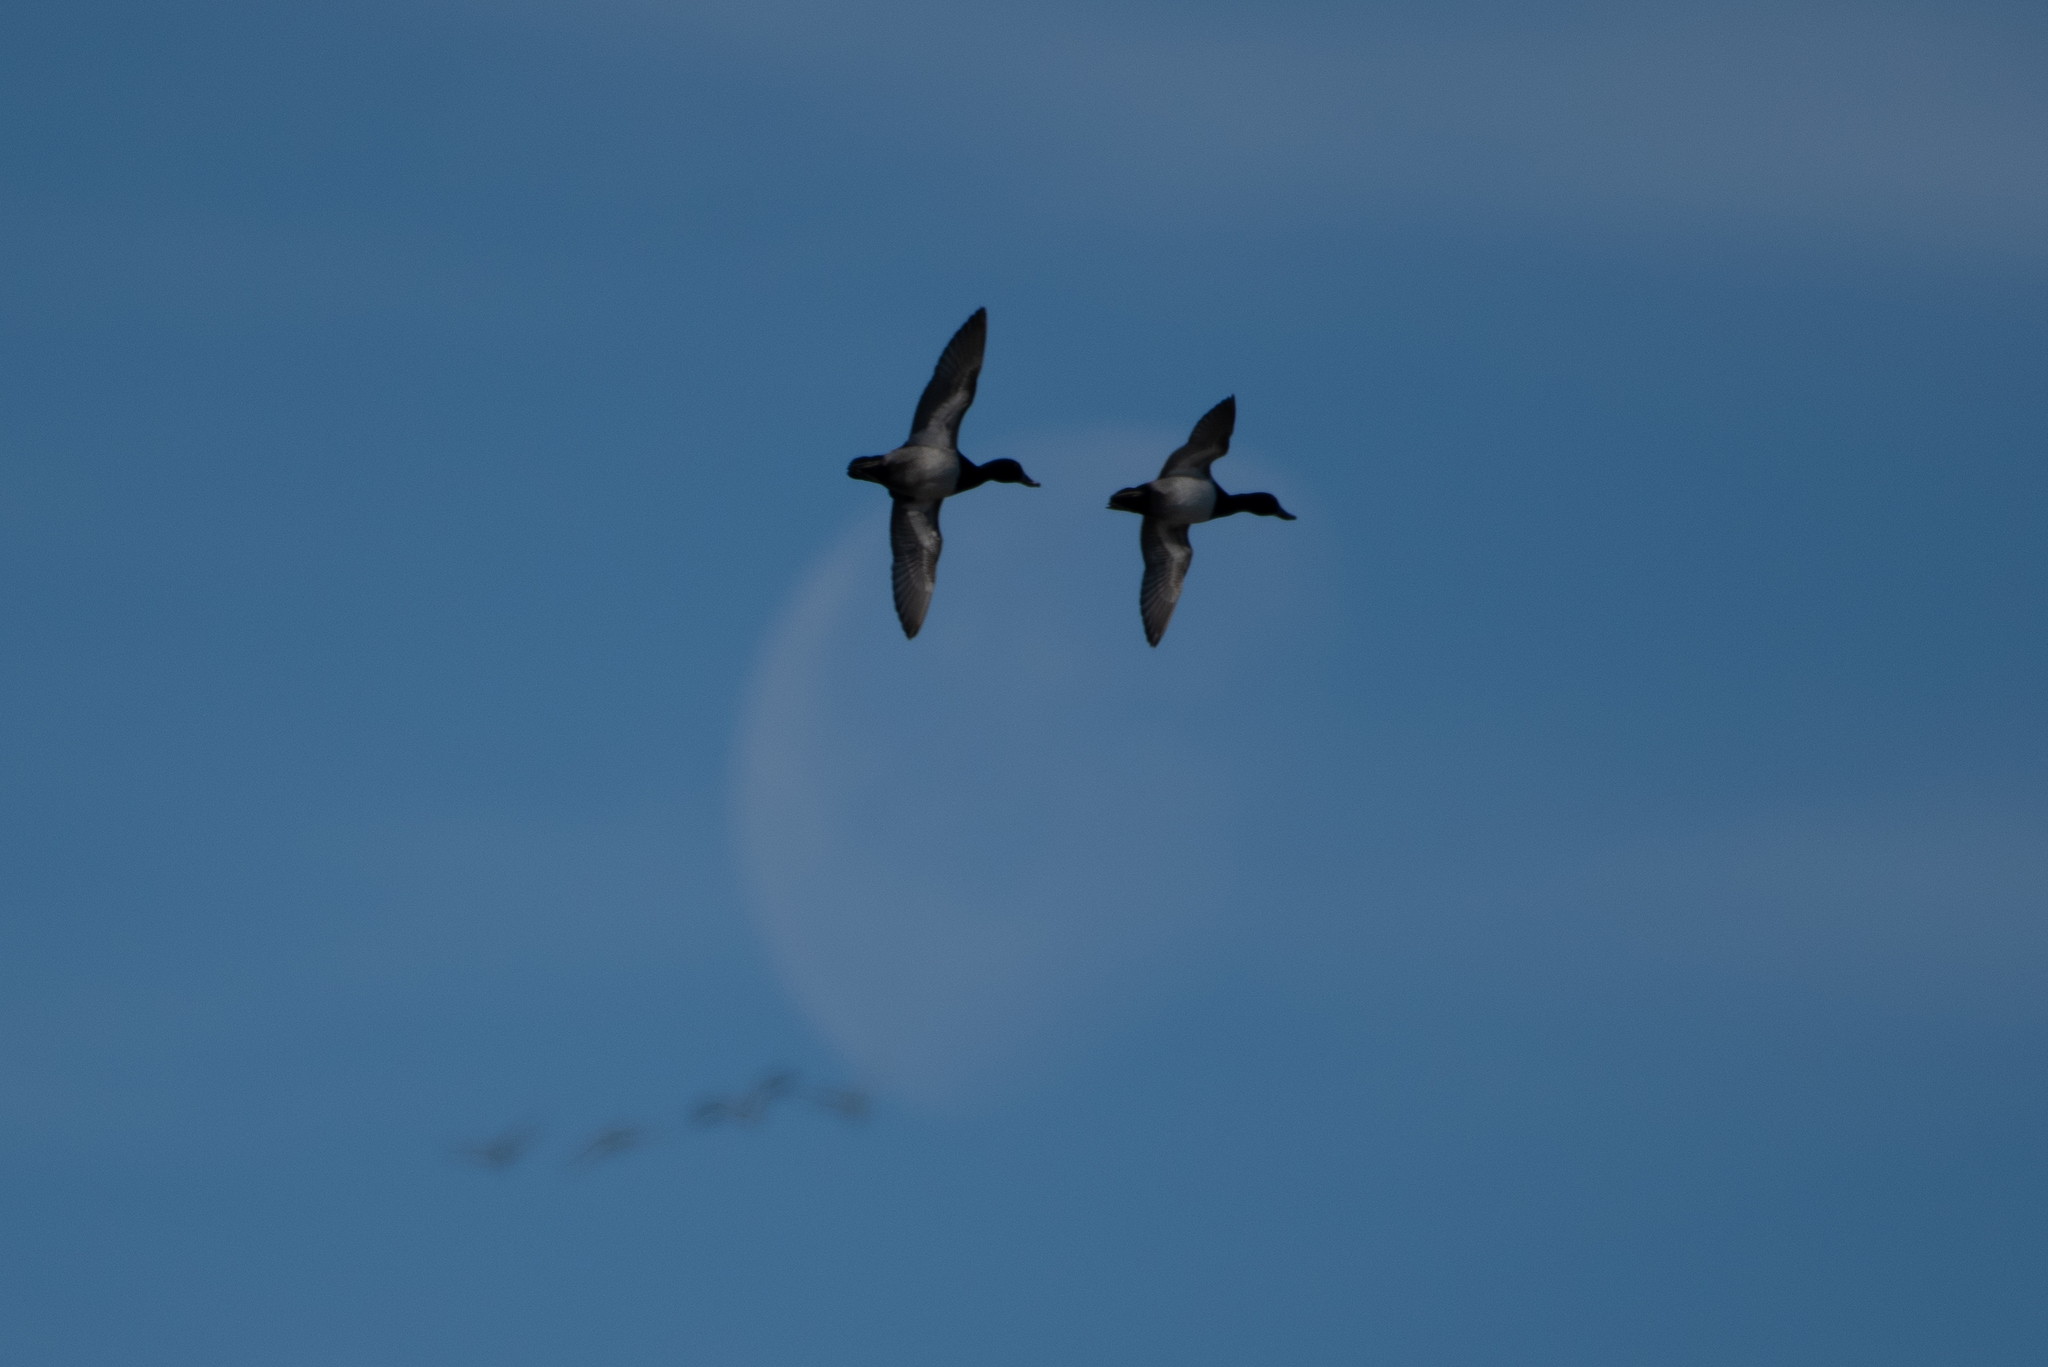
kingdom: Animalia
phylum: Chordata
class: Aves
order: Anseriformes
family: Anatidae
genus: Aythya
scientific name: Aythya collaris
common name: Ring-necked duck
